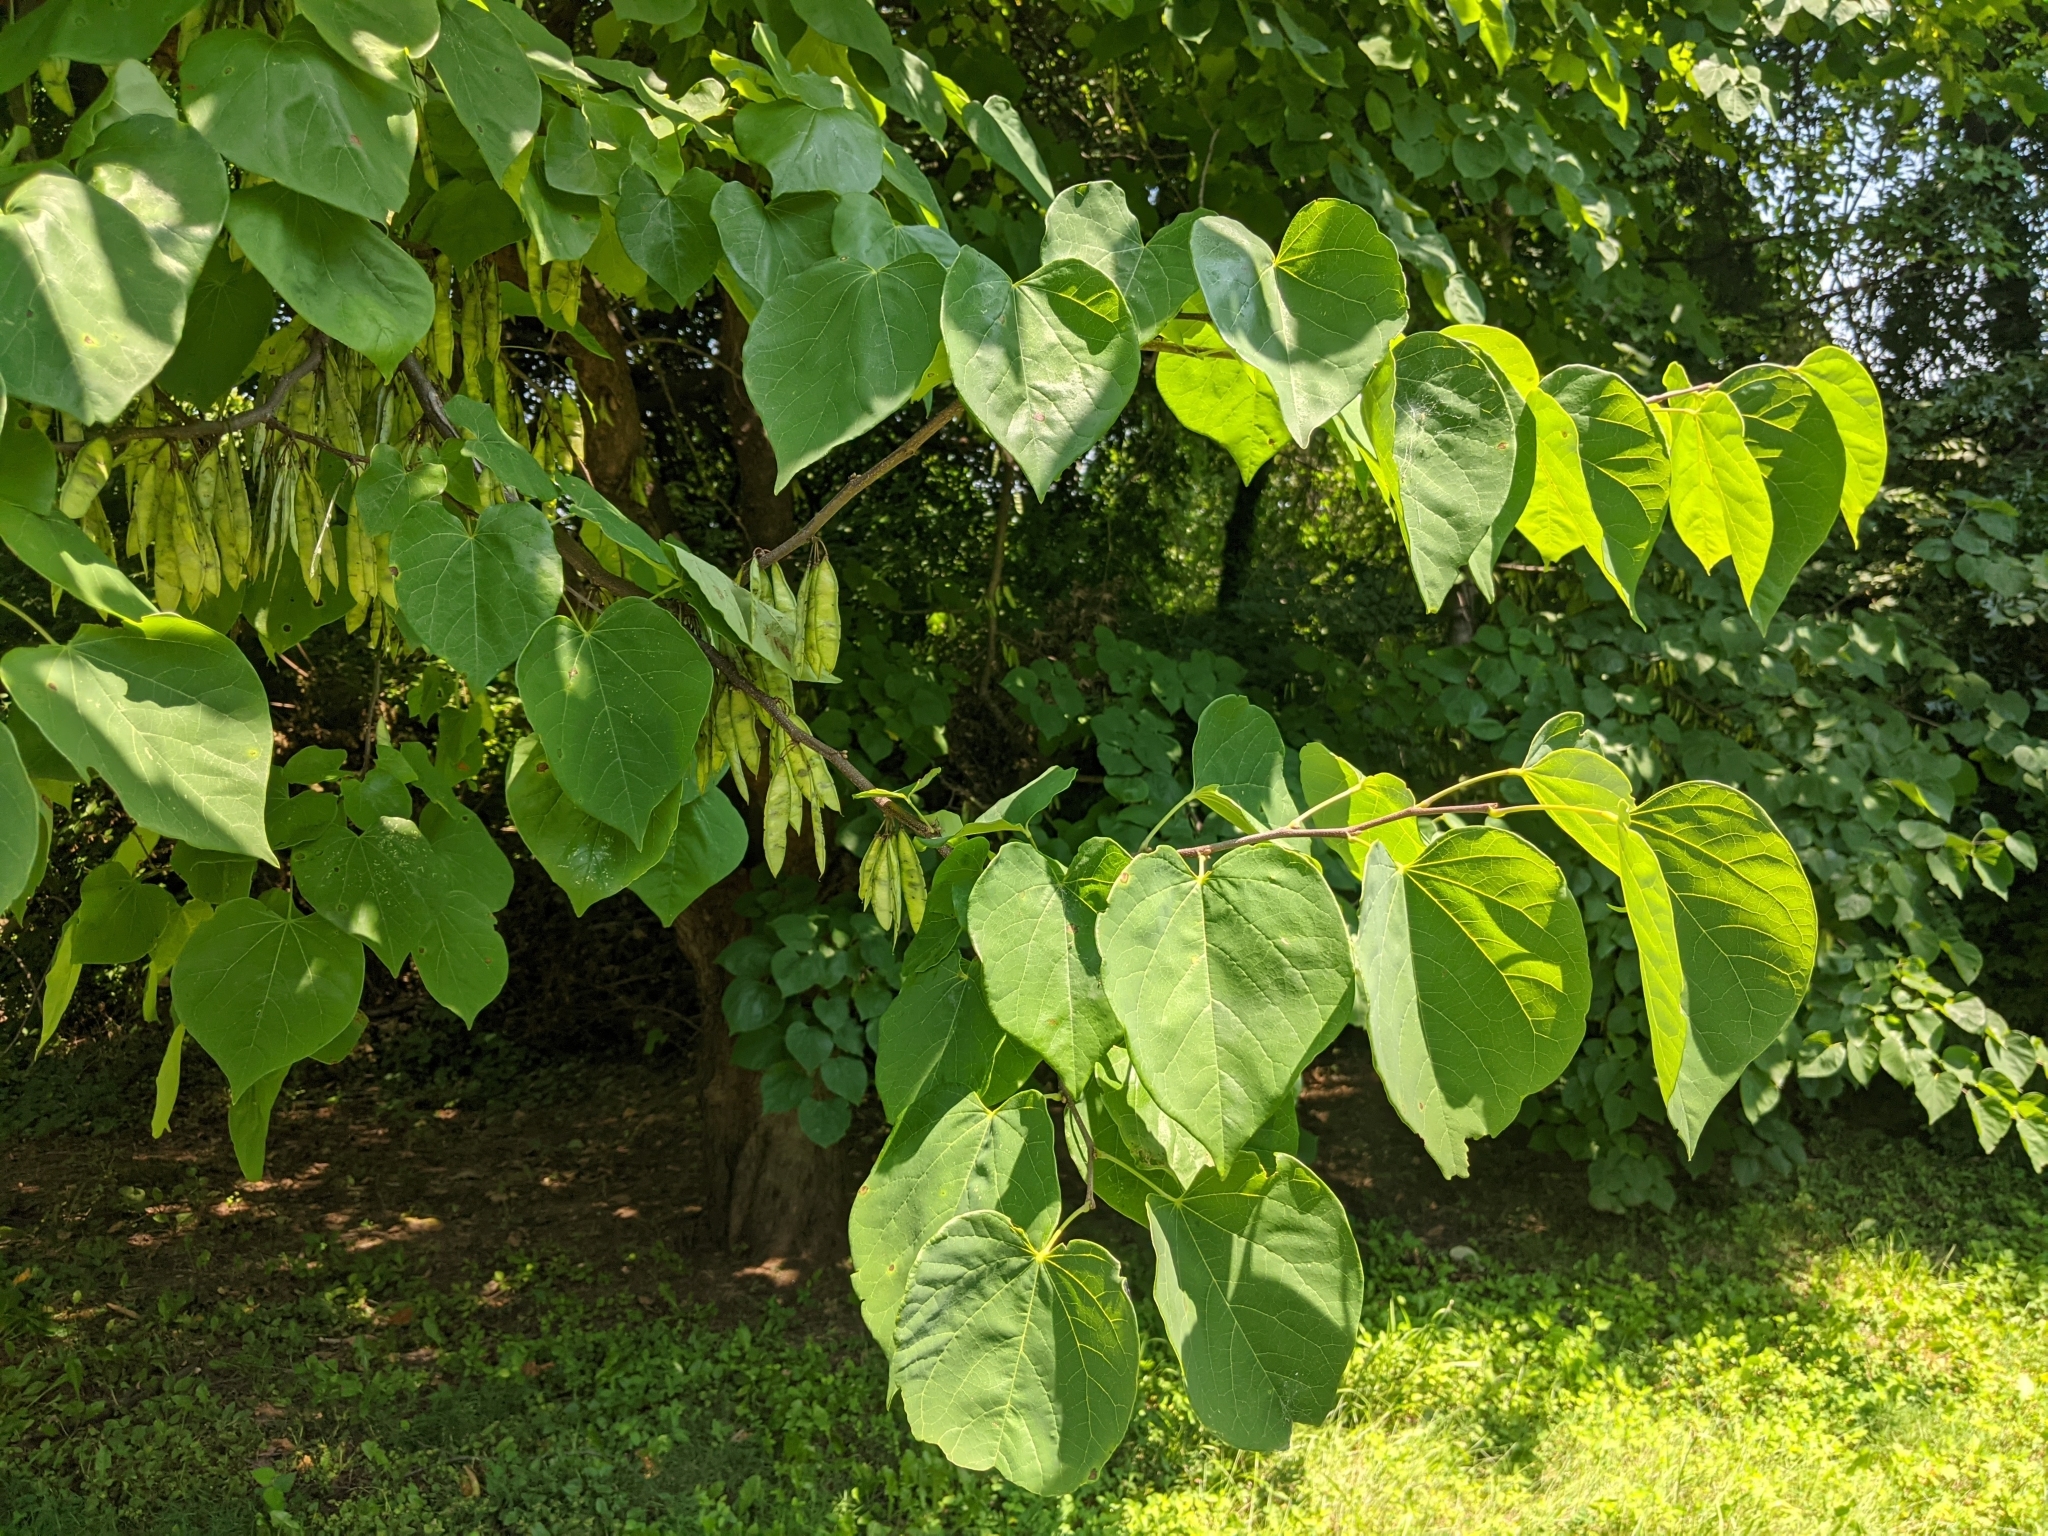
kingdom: Plantae
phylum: Tracheophyta
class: Magnoliopsida
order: Fabales
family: Fabaceae
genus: Cercis
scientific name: Cercis canadensis
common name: Eastern redbud
